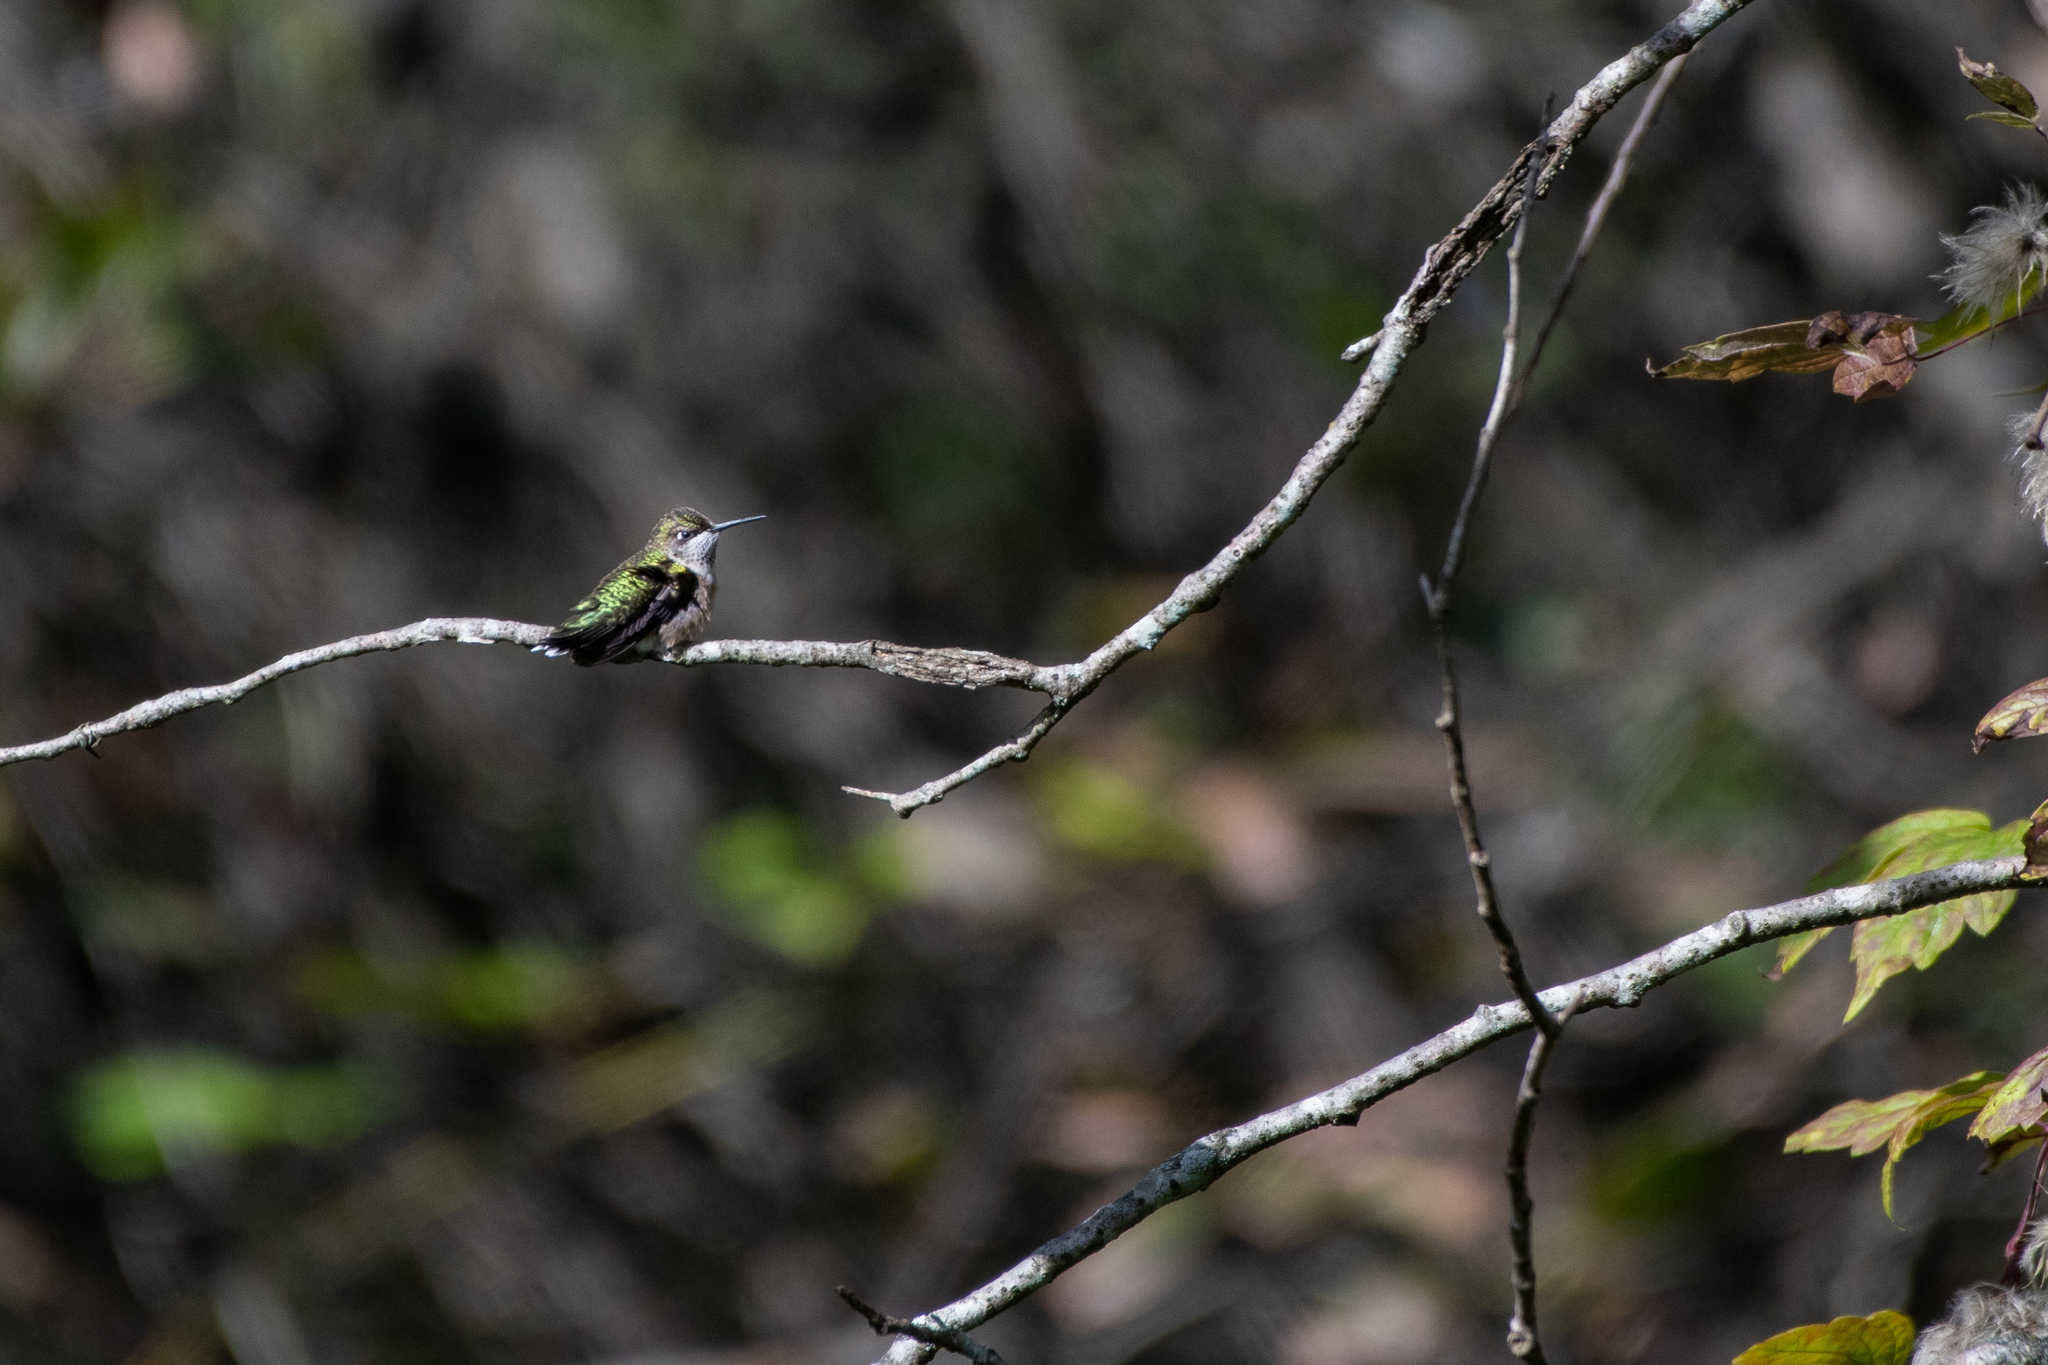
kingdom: Animalia
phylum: Chordata
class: Aves
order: Apodiformes
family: Trochilidae
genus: Archilochus
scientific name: Archilochus colubris
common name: Ruby-throated hummingbird
